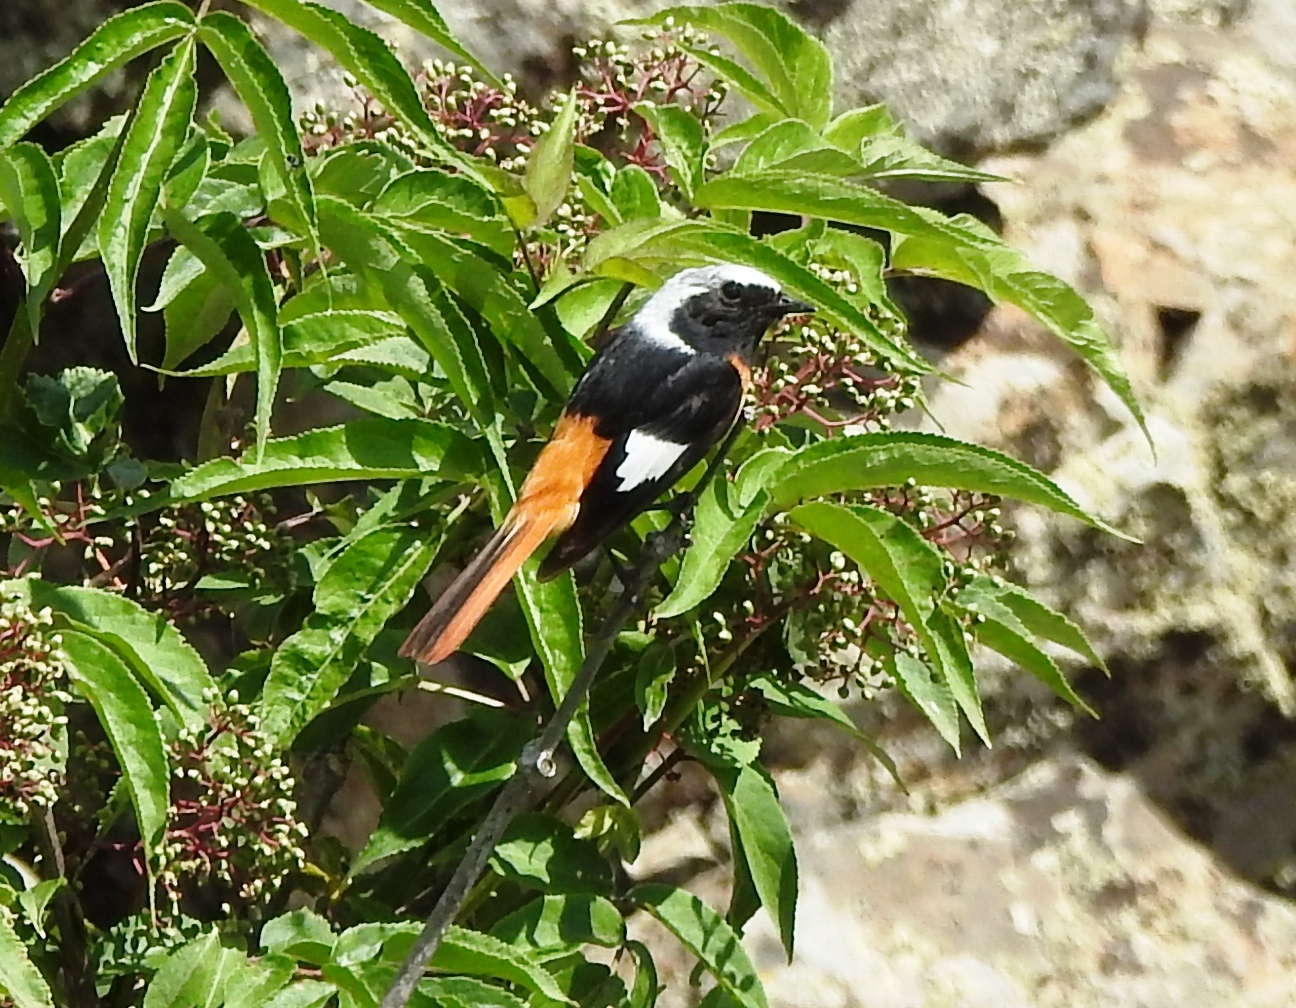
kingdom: Animalia
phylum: Chordata
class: Aves
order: Passeriformes
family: Muscicapidae
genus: Phoenicurus
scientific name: Phoenicurus auroreus
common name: Daurian redstart
